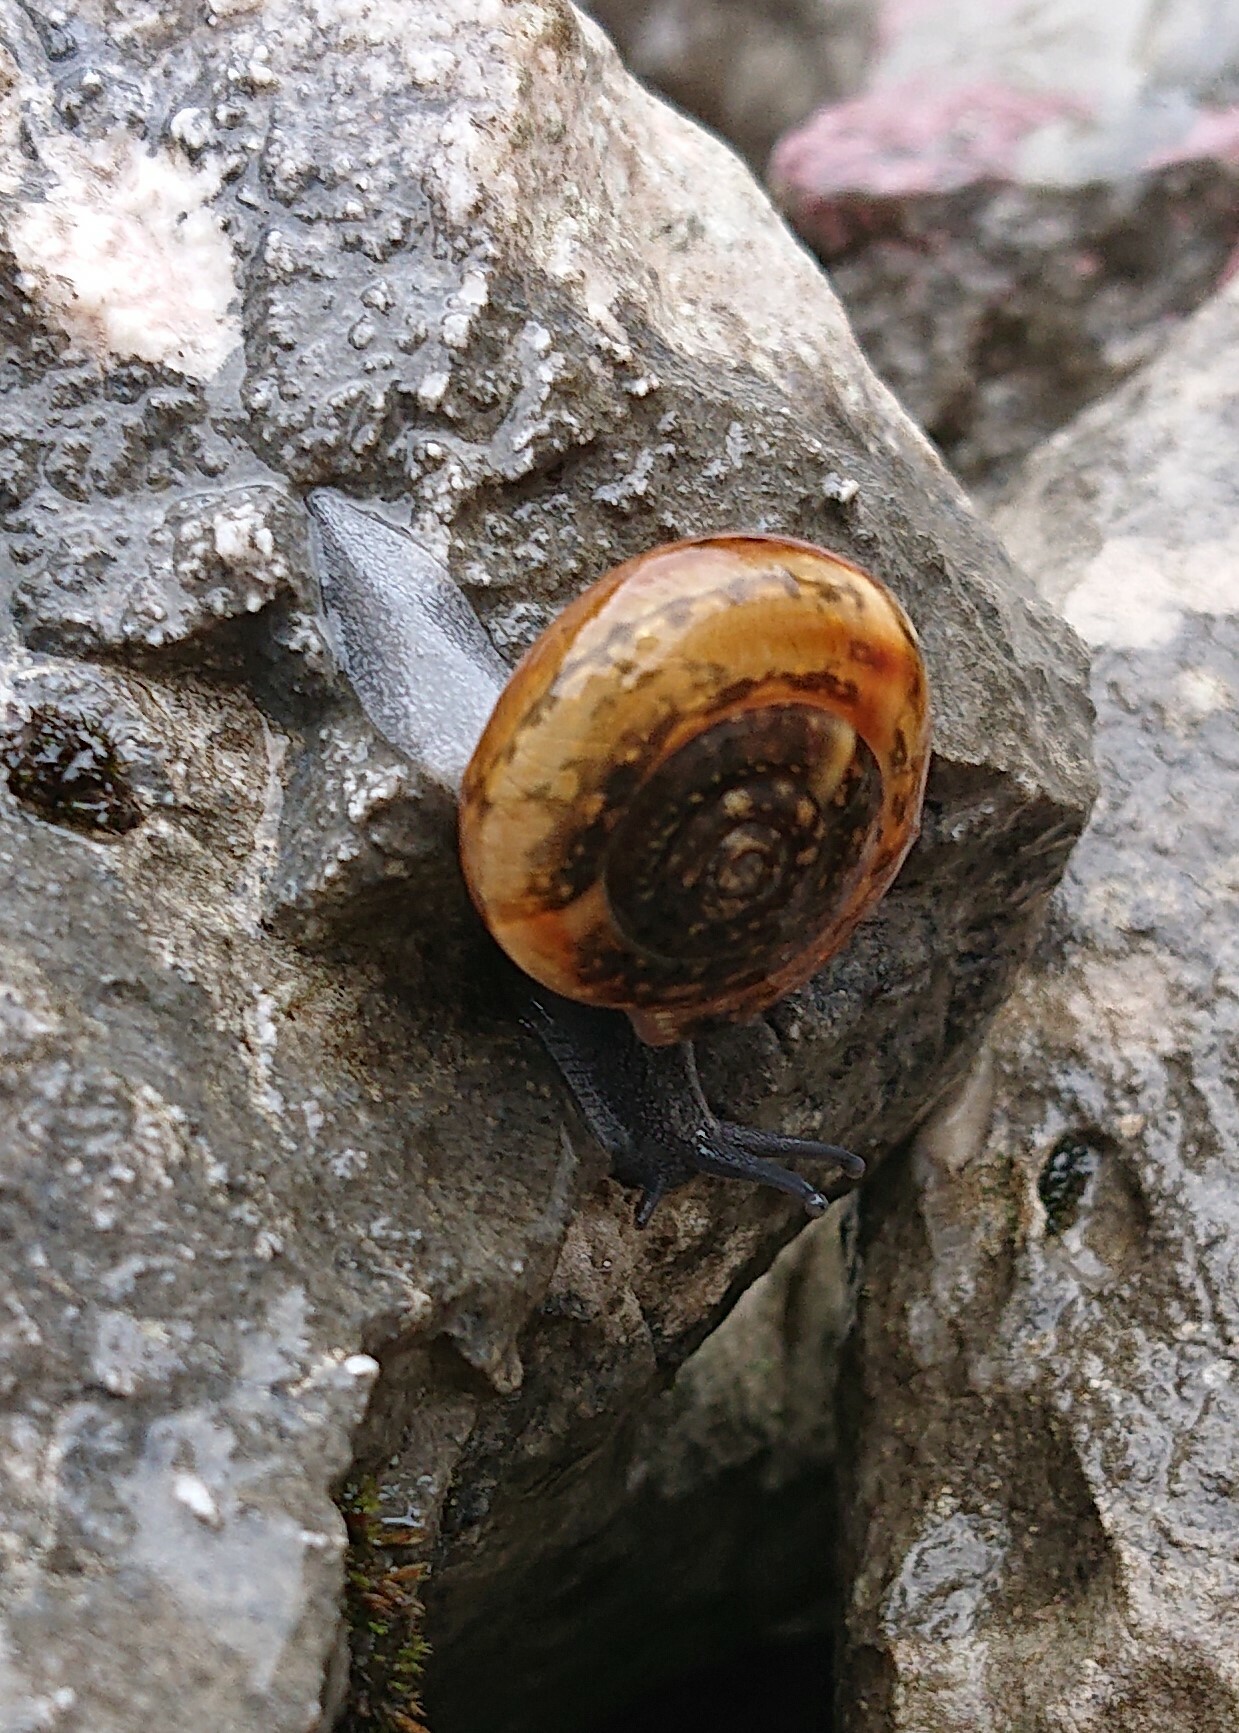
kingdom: Animalia
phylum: Mollusca
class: Gastropoda
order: Stylommatophora
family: Helicidae
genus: Campylaea
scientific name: Campylaea illyrica
